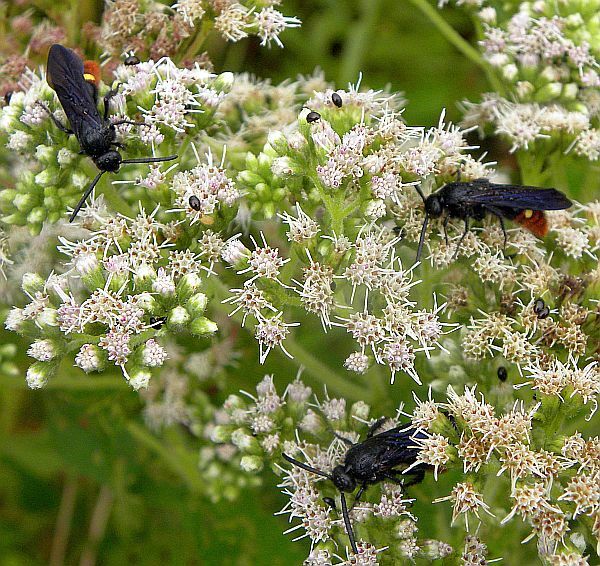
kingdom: Animalia
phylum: Arthropoda
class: Insecta
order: Hymenoptera
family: Scoliidae
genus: Scolia
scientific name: Scolia dubia
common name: Blue-winged scoliid wasp
